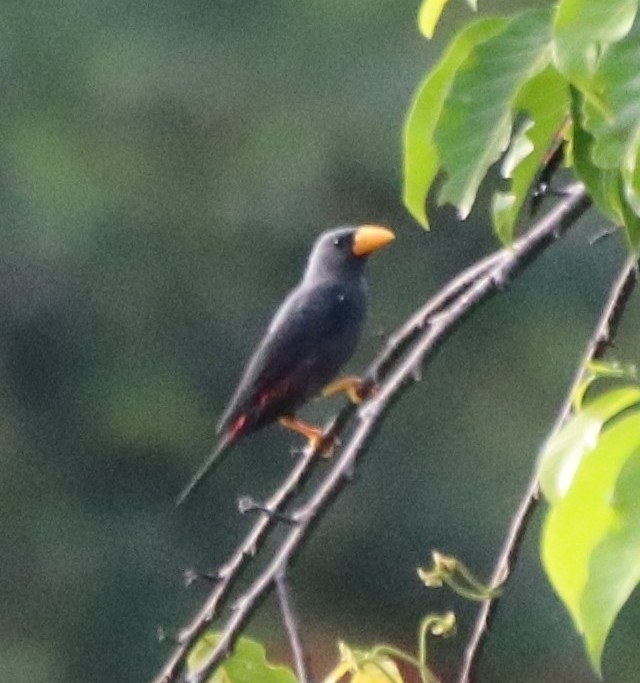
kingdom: Animalia
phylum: Chordata
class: Aves
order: Passeriformes
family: Sturnidae
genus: Scissirostrum
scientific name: Scissirostrum dubium
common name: Grosbeak starling
